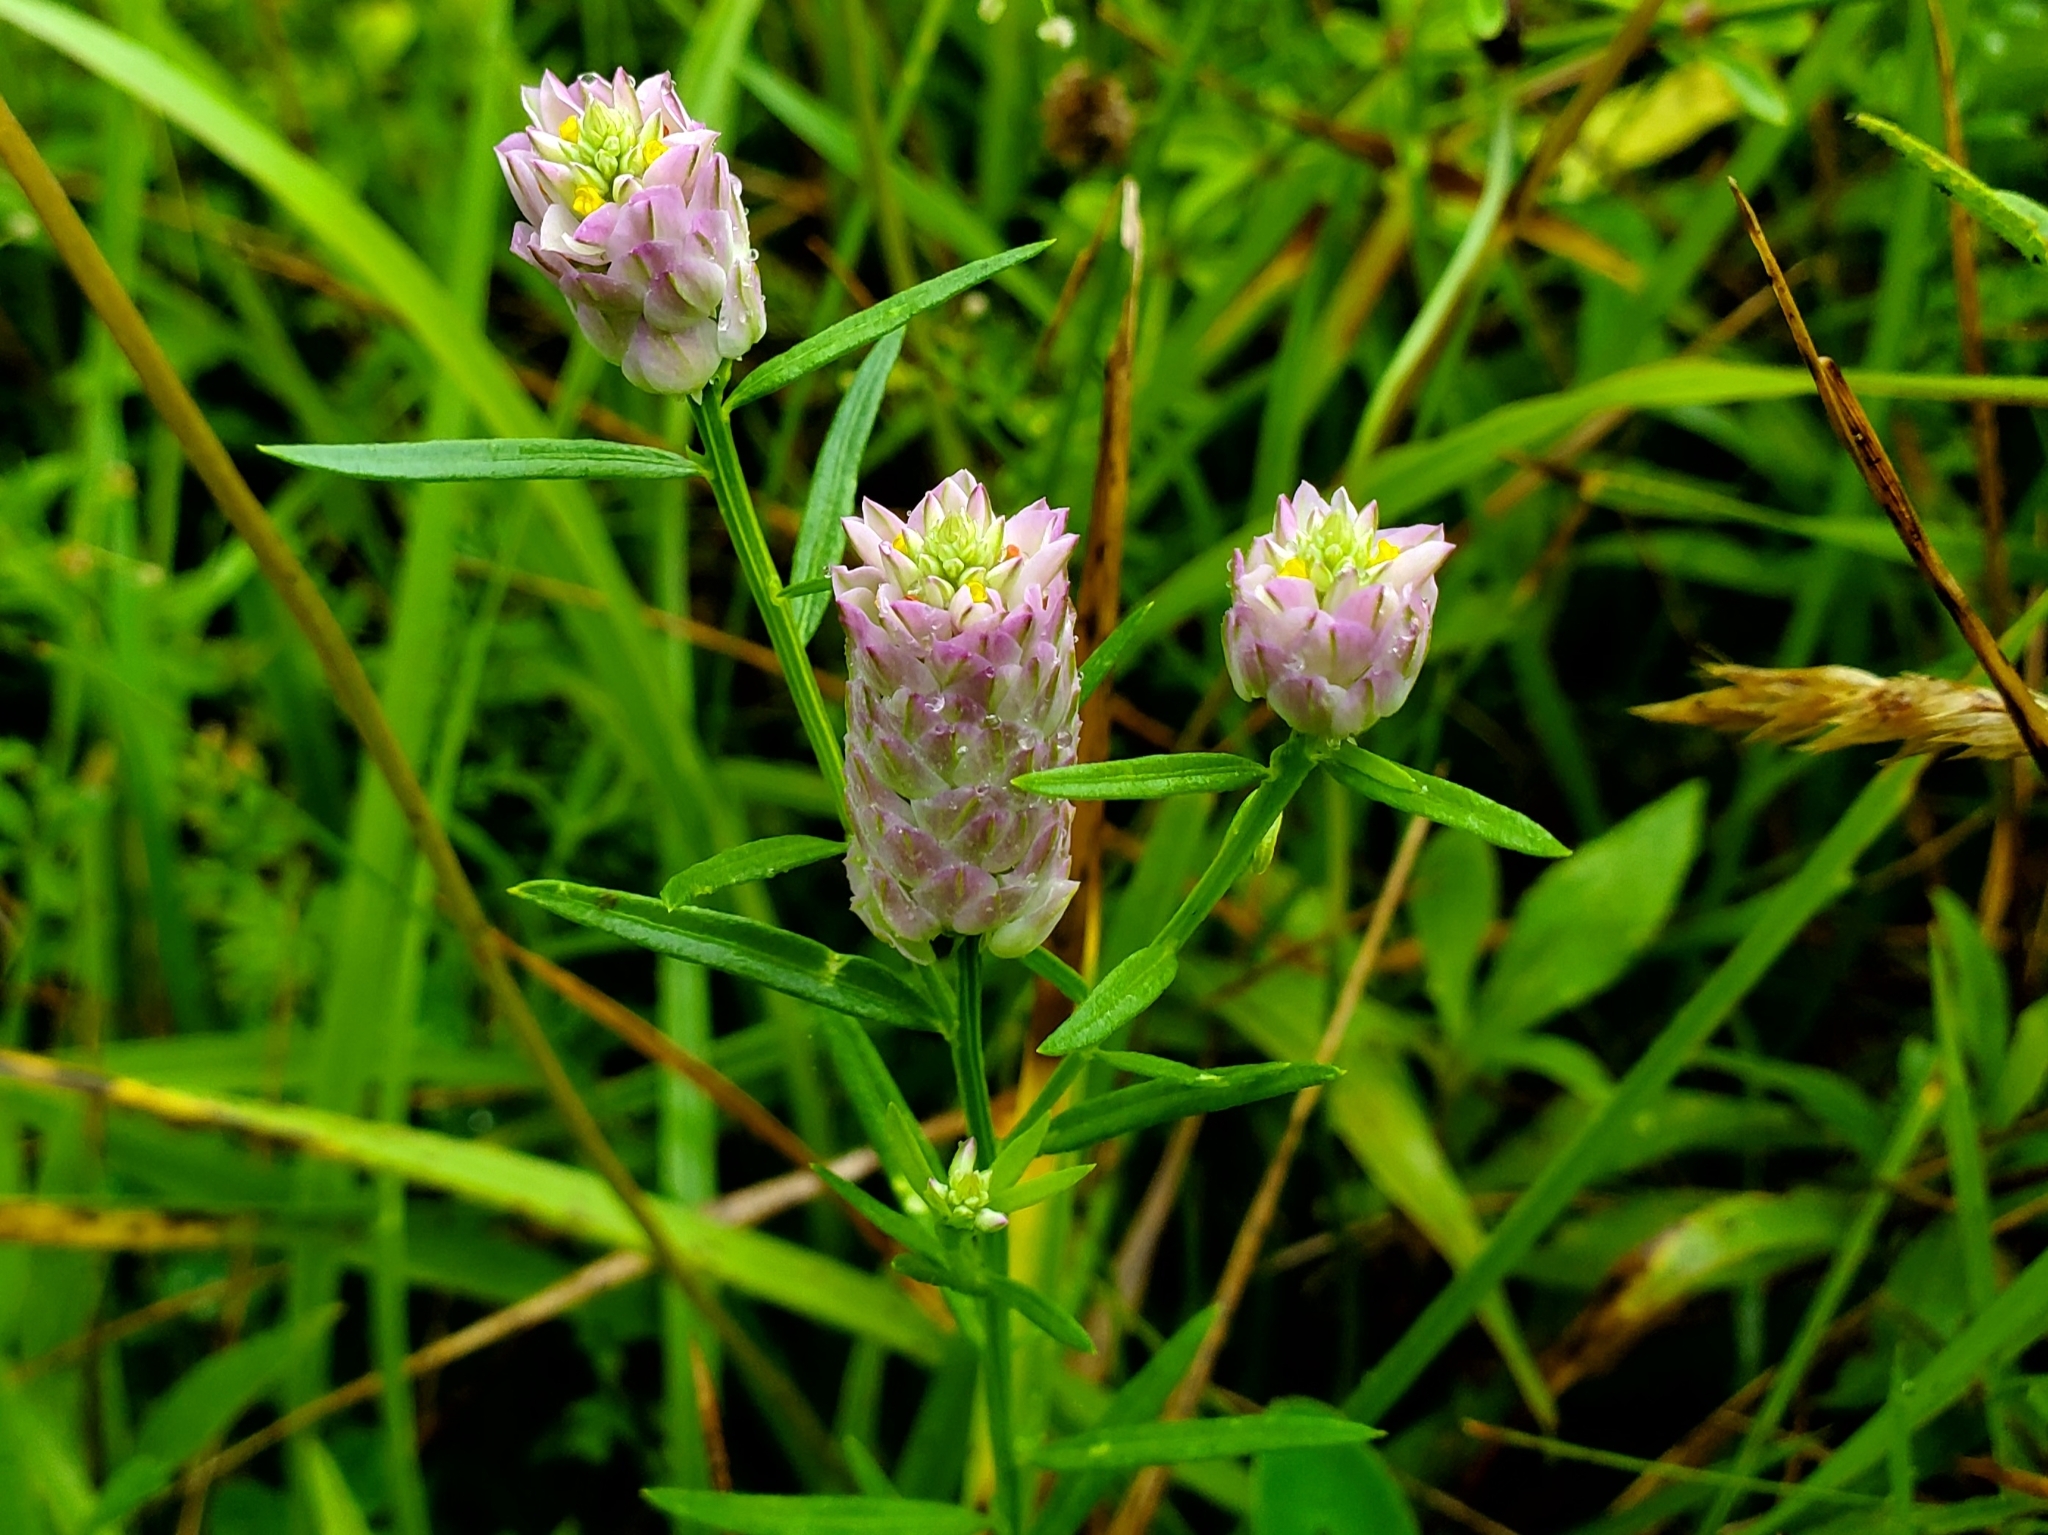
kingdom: Plantae
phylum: Tracheophyta
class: Magnoliopsida
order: Fabales
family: Polygalaceae
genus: Polygala
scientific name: Polygala sanguinea
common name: Blood milkwort
